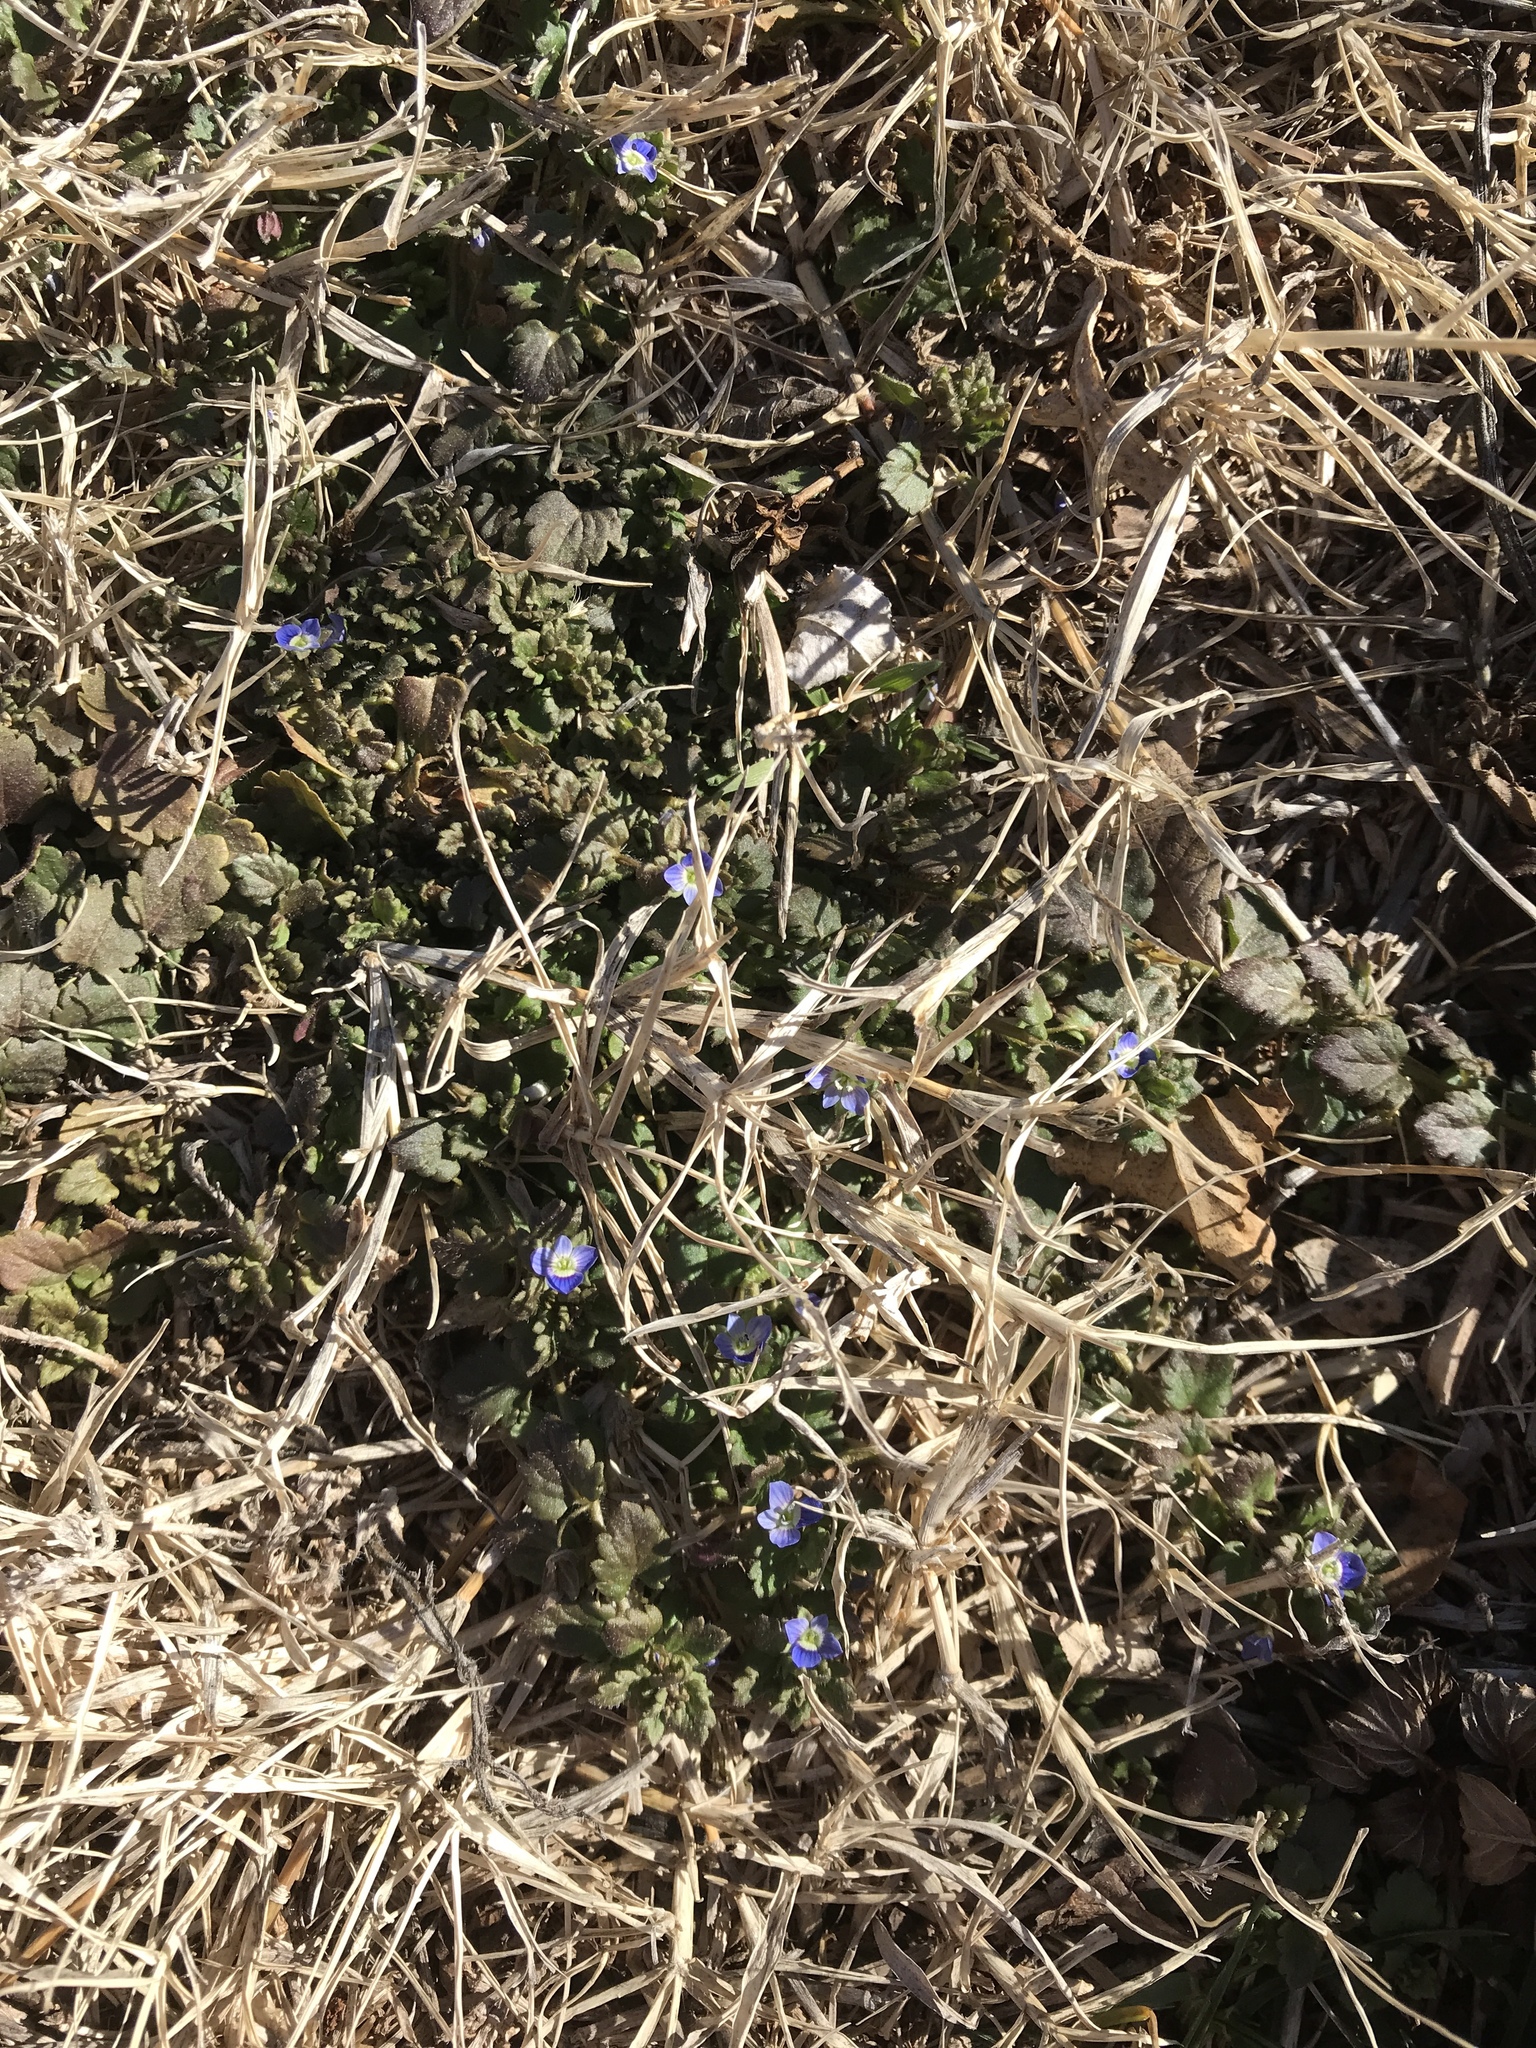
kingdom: Plantae
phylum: Tracheophyta
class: Magnoliopsida
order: Lamiales
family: Plantaginaceae
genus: Veronica
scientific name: Veronica persica
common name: Common field-speedwell
